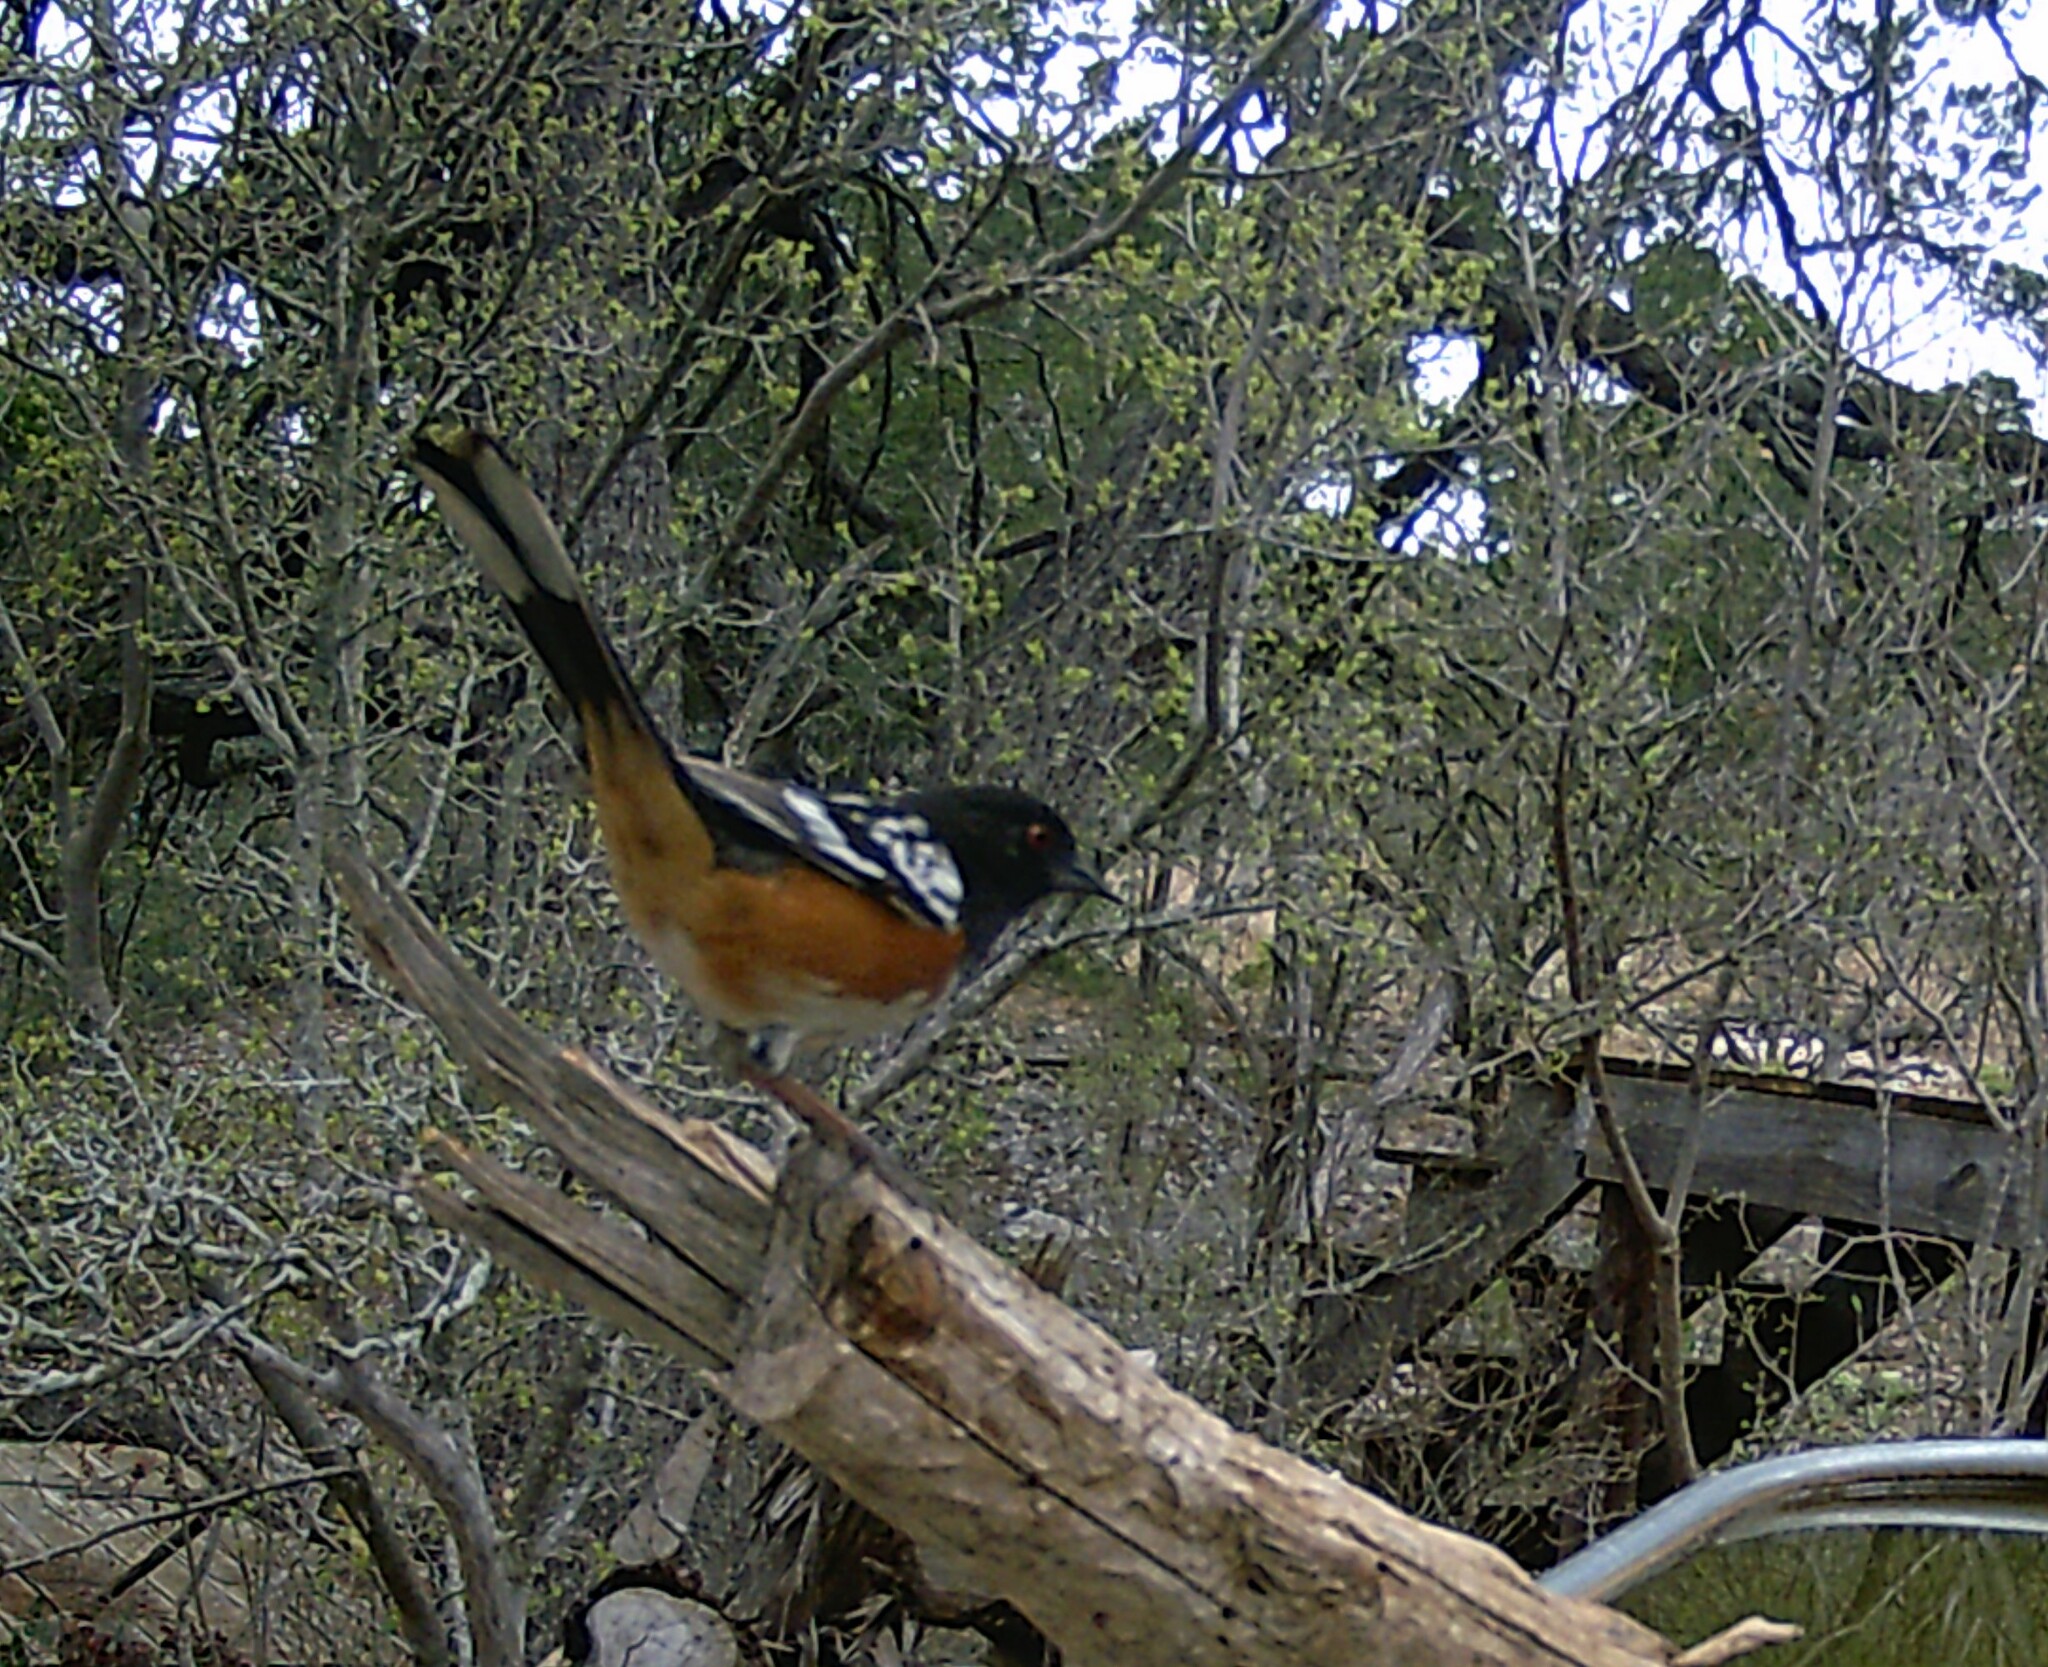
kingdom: Animalia
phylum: Chordata
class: Aves
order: Passeriformes
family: Passerellidae
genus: Pipilo
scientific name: Pipilo maculatus
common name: Spotted towhee
